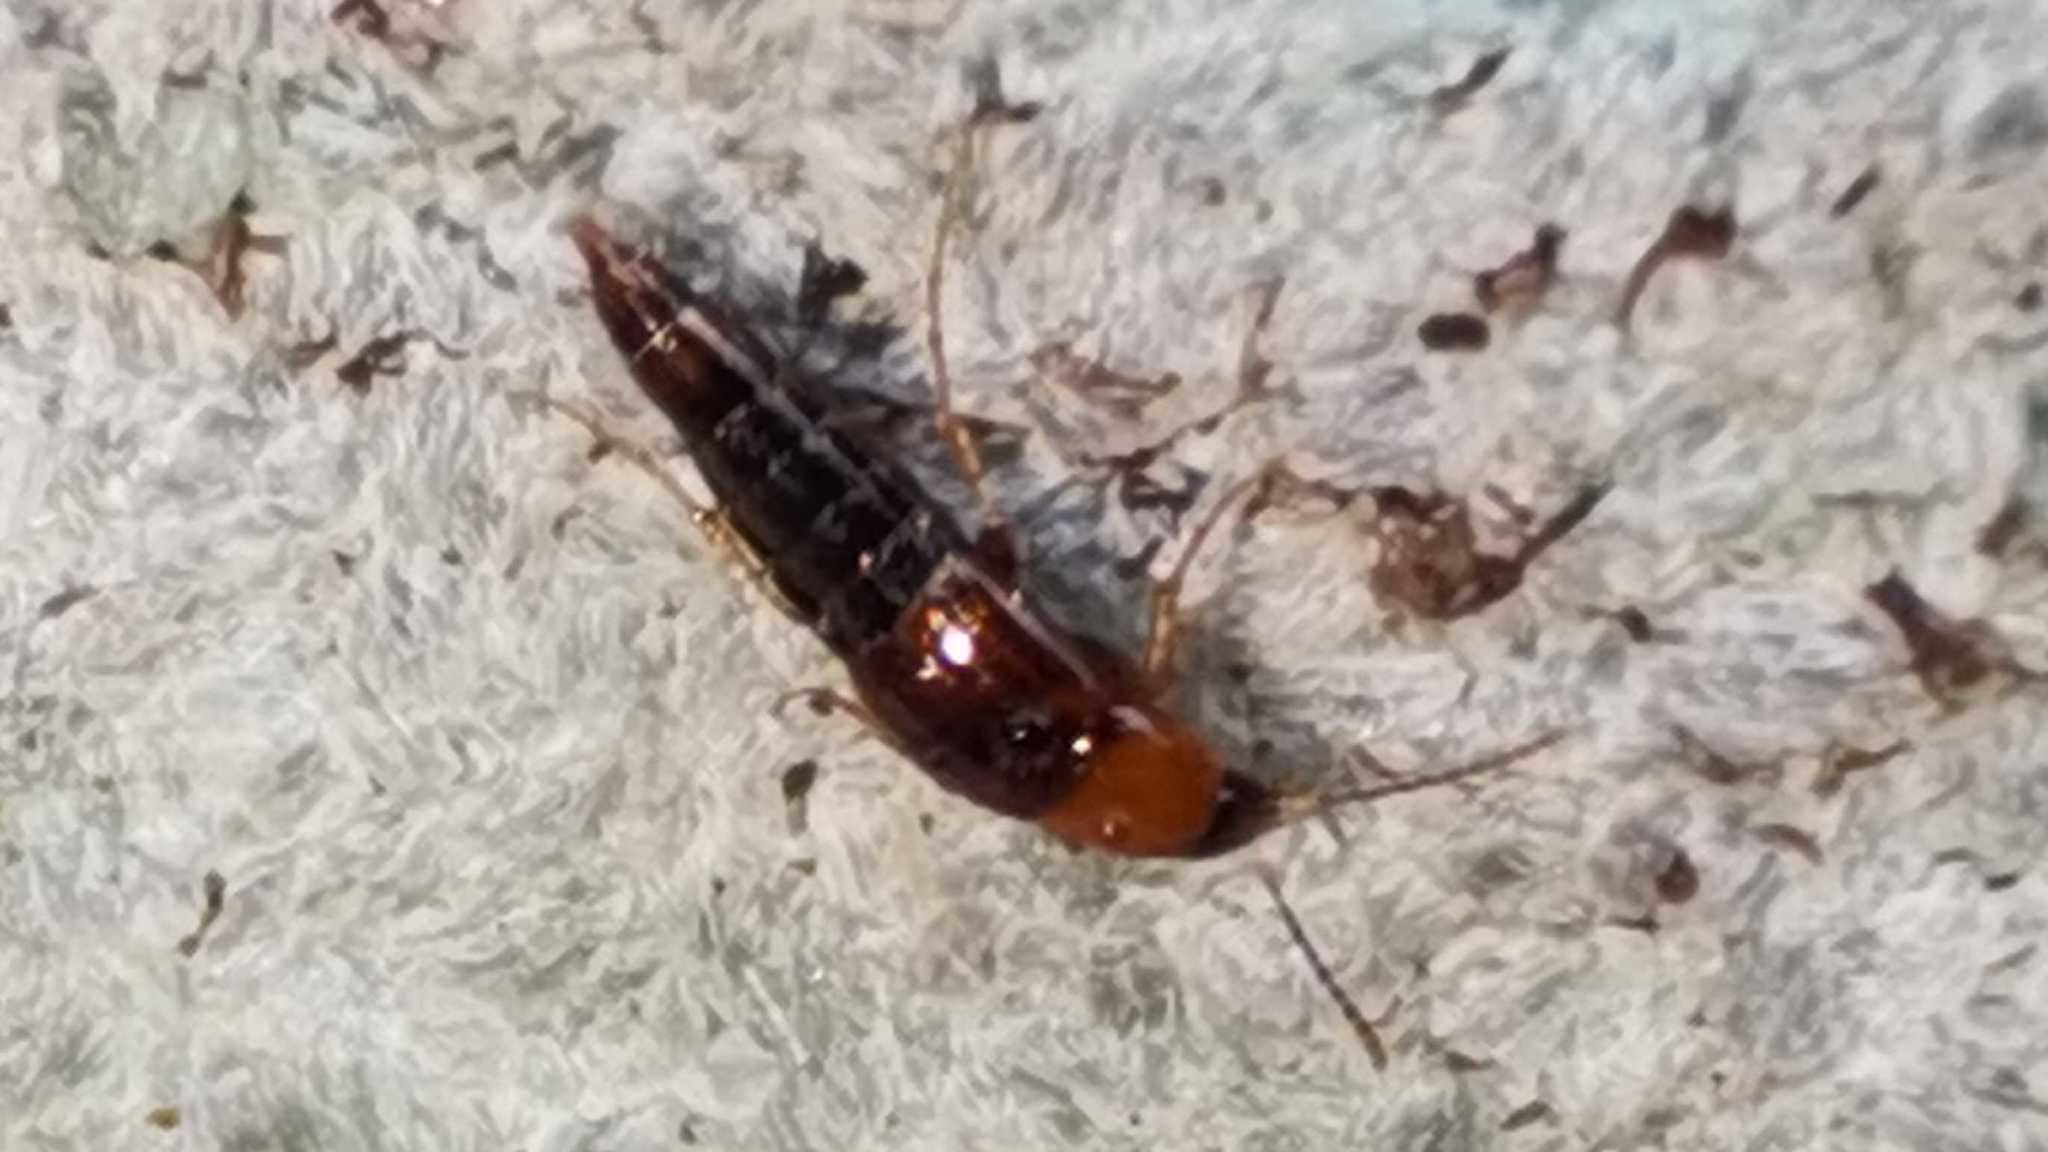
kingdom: Animalia
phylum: Arthropoda
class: Insecta
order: Coleoptera
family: Staphylinidae
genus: Ischnosoma
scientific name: Ischnosoma
